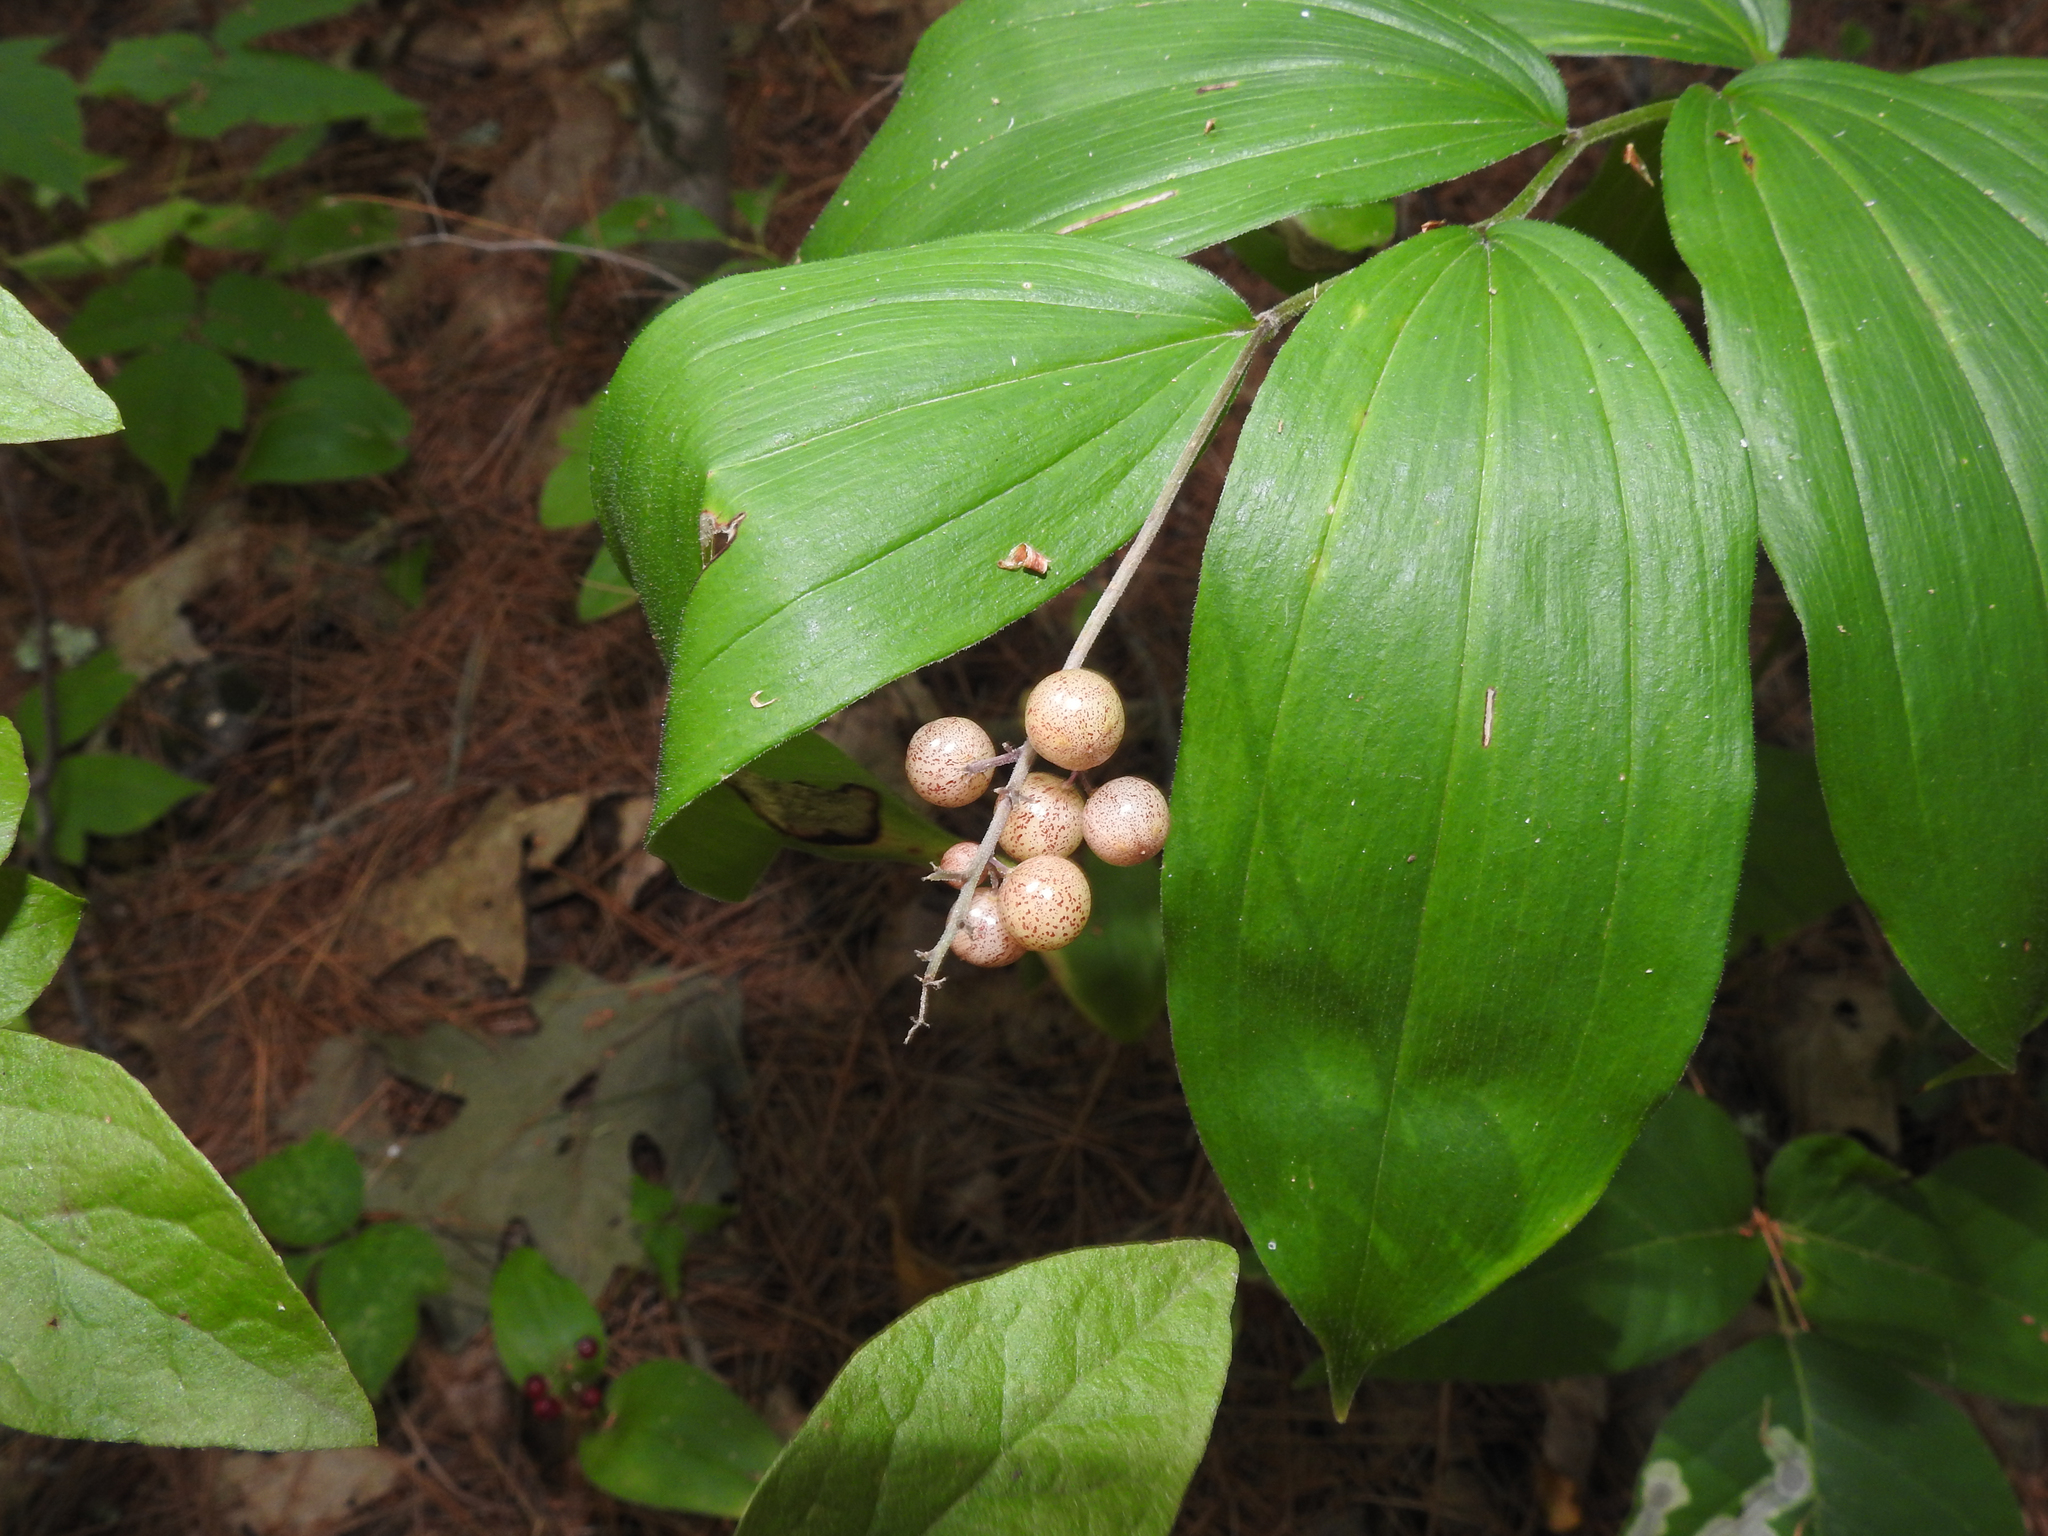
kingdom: Plantae
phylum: Tracheophyta
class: Liliopsida
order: Asparagales
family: Asparagaceae
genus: Maianthemum
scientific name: Maianthemum racemosum
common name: False spikenard
